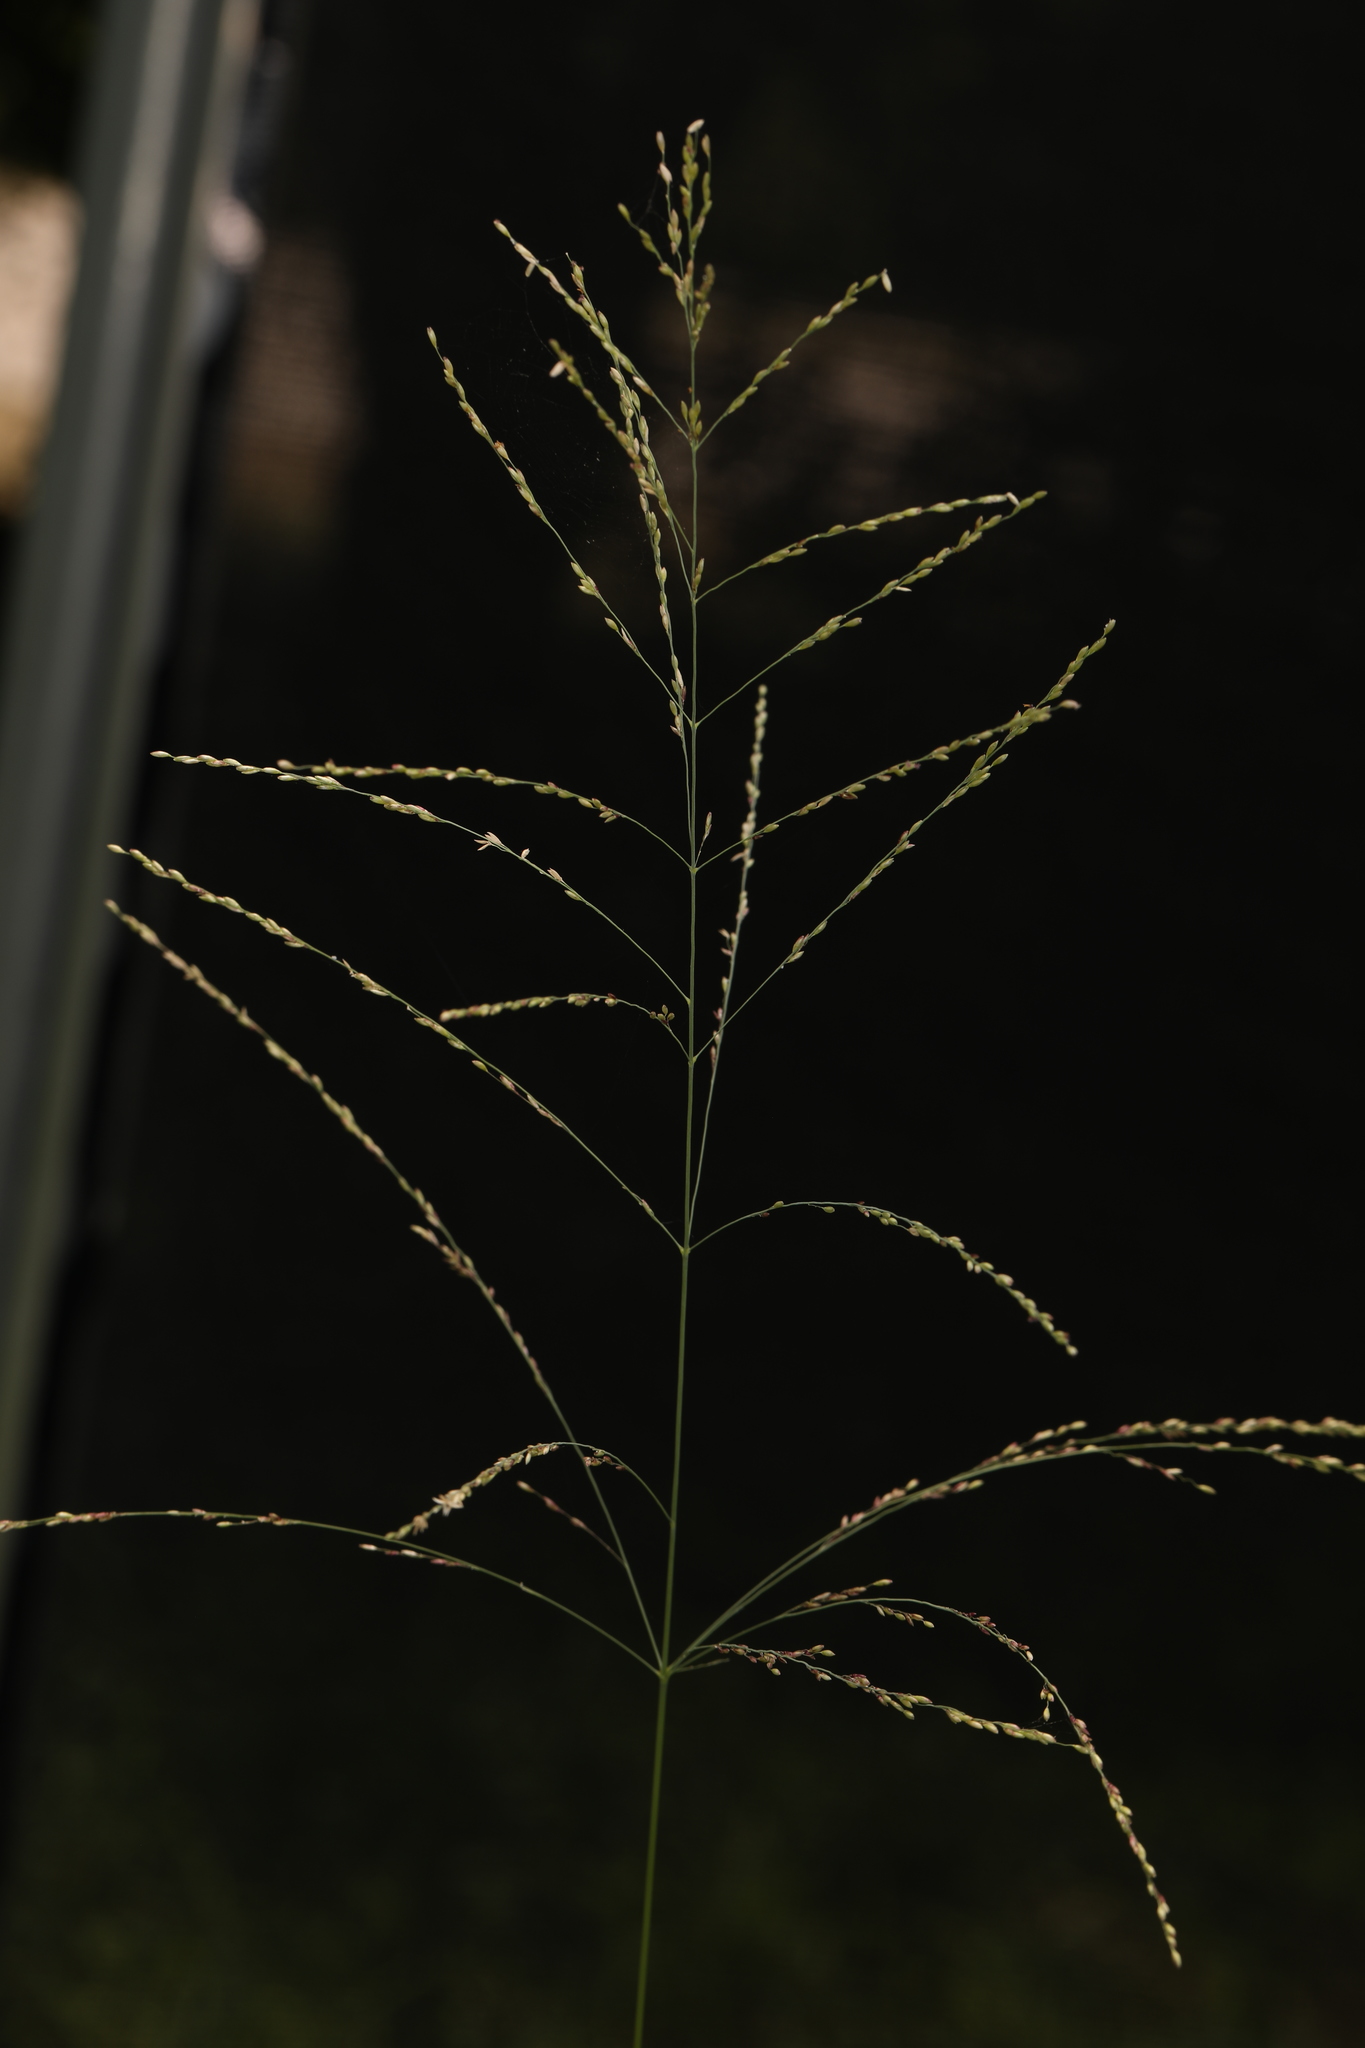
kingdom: Plantae
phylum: Tracheophyta
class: Liliopsida
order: Poales
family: Poaceae
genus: Megathyrsus
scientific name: Megathyrsus maximus
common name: Guineagrass
